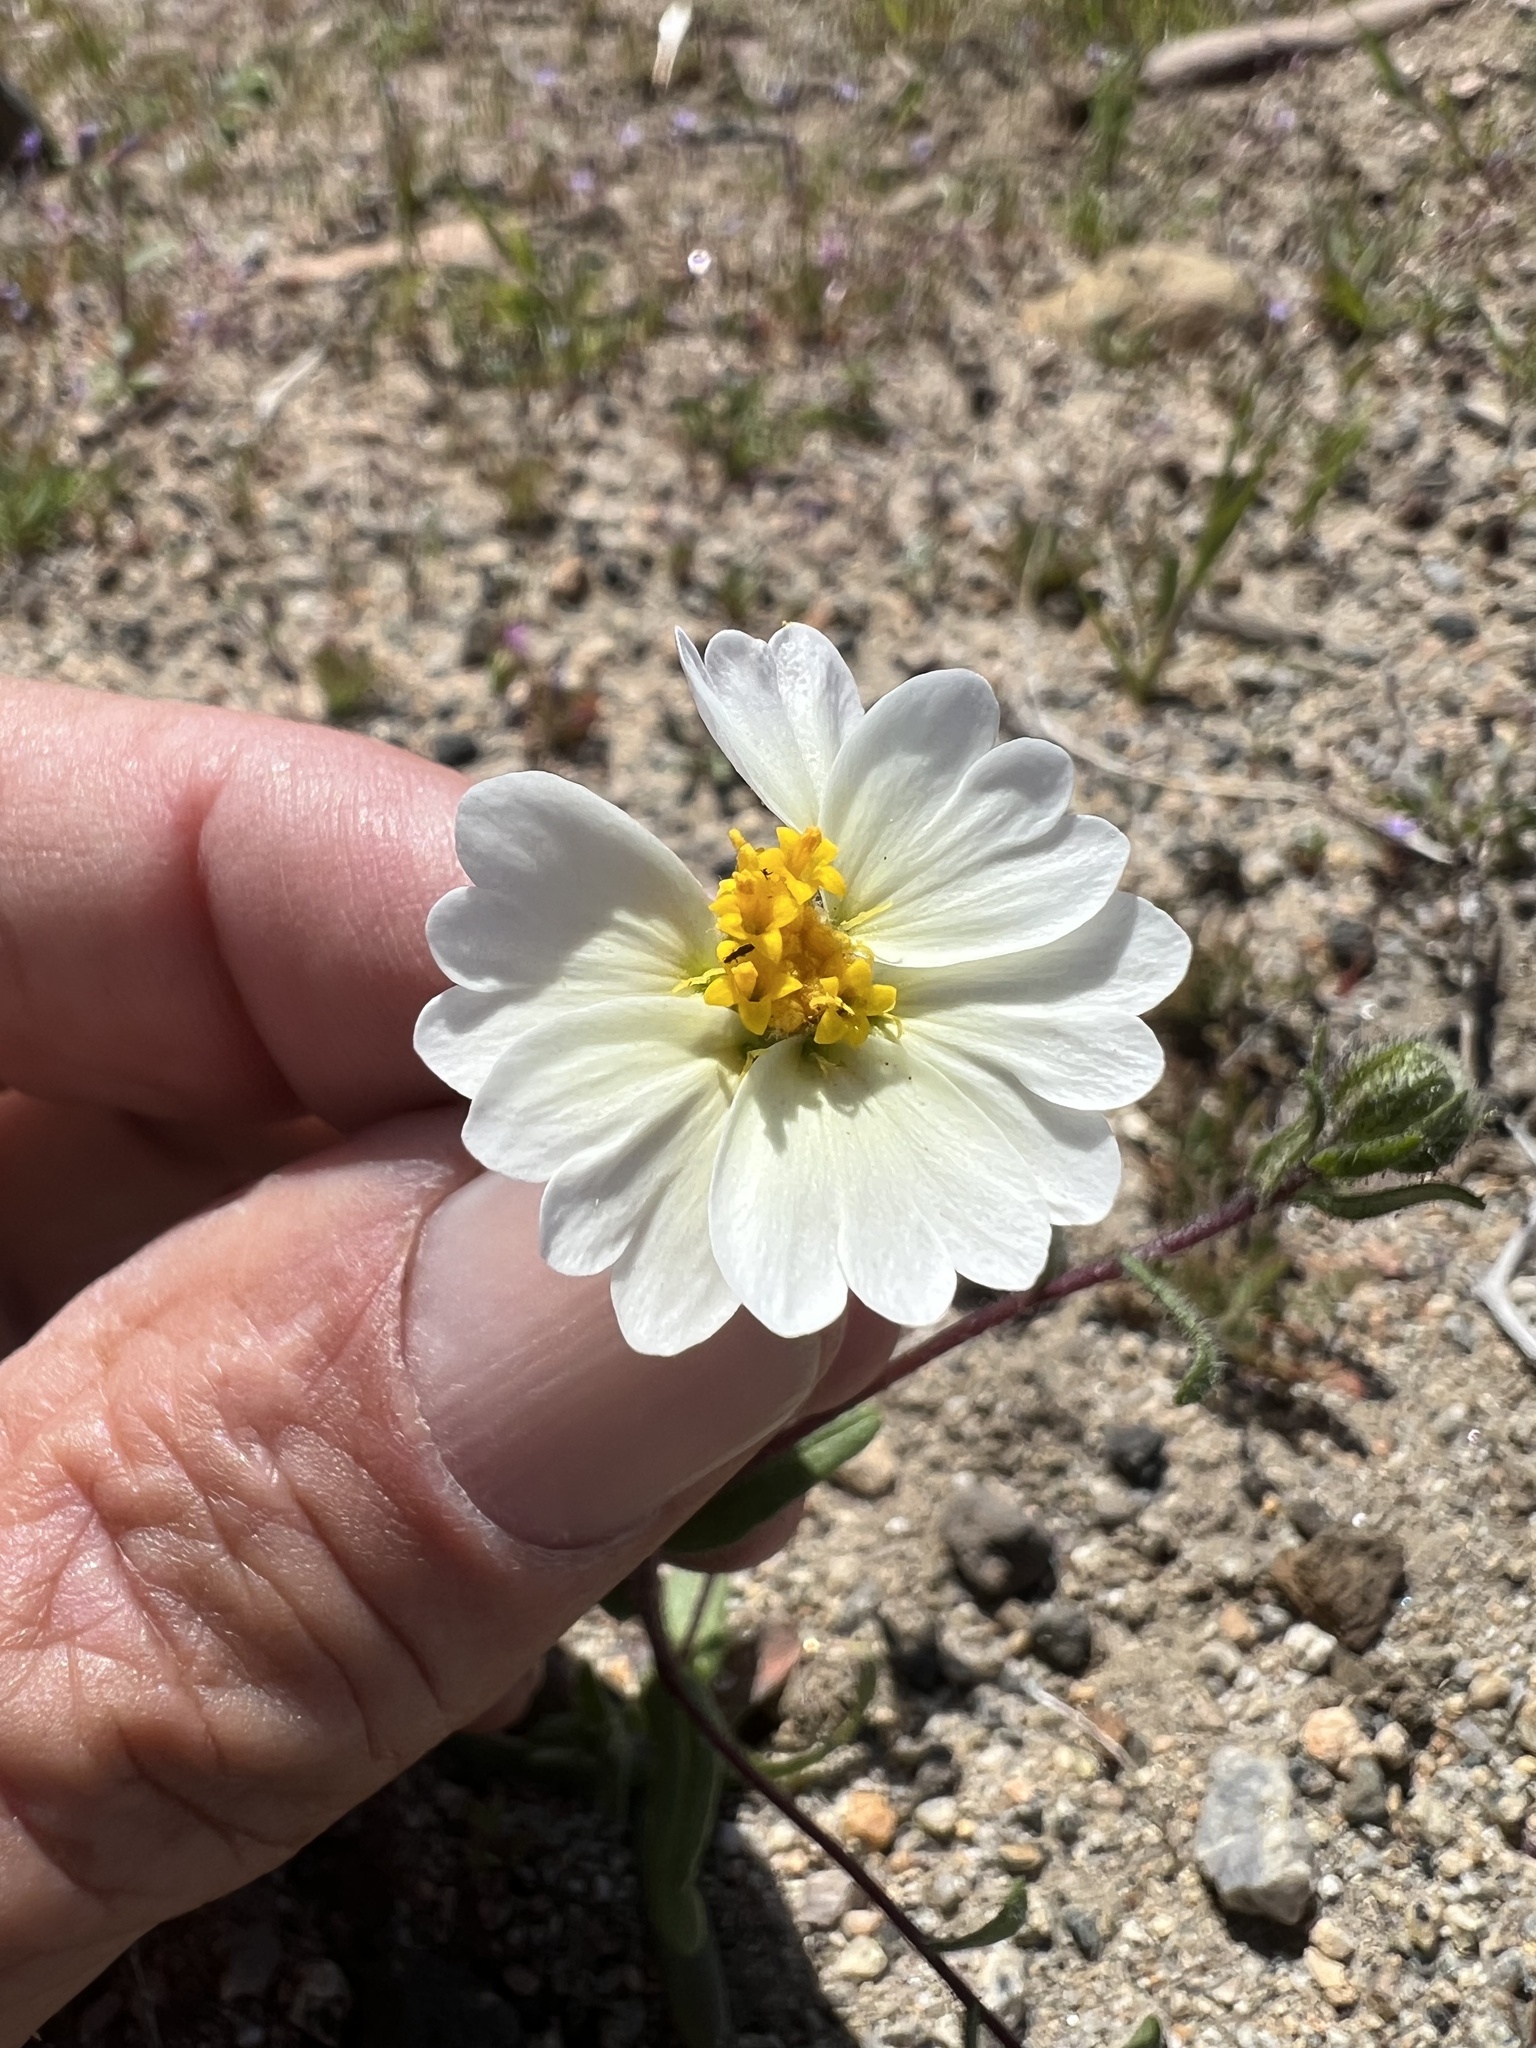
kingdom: Plantae
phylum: Tracheophyta
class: Magnoliopsida
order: Asterales
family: Asteraceae
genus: Layia
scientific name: Layia glandulosa
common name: White layia
